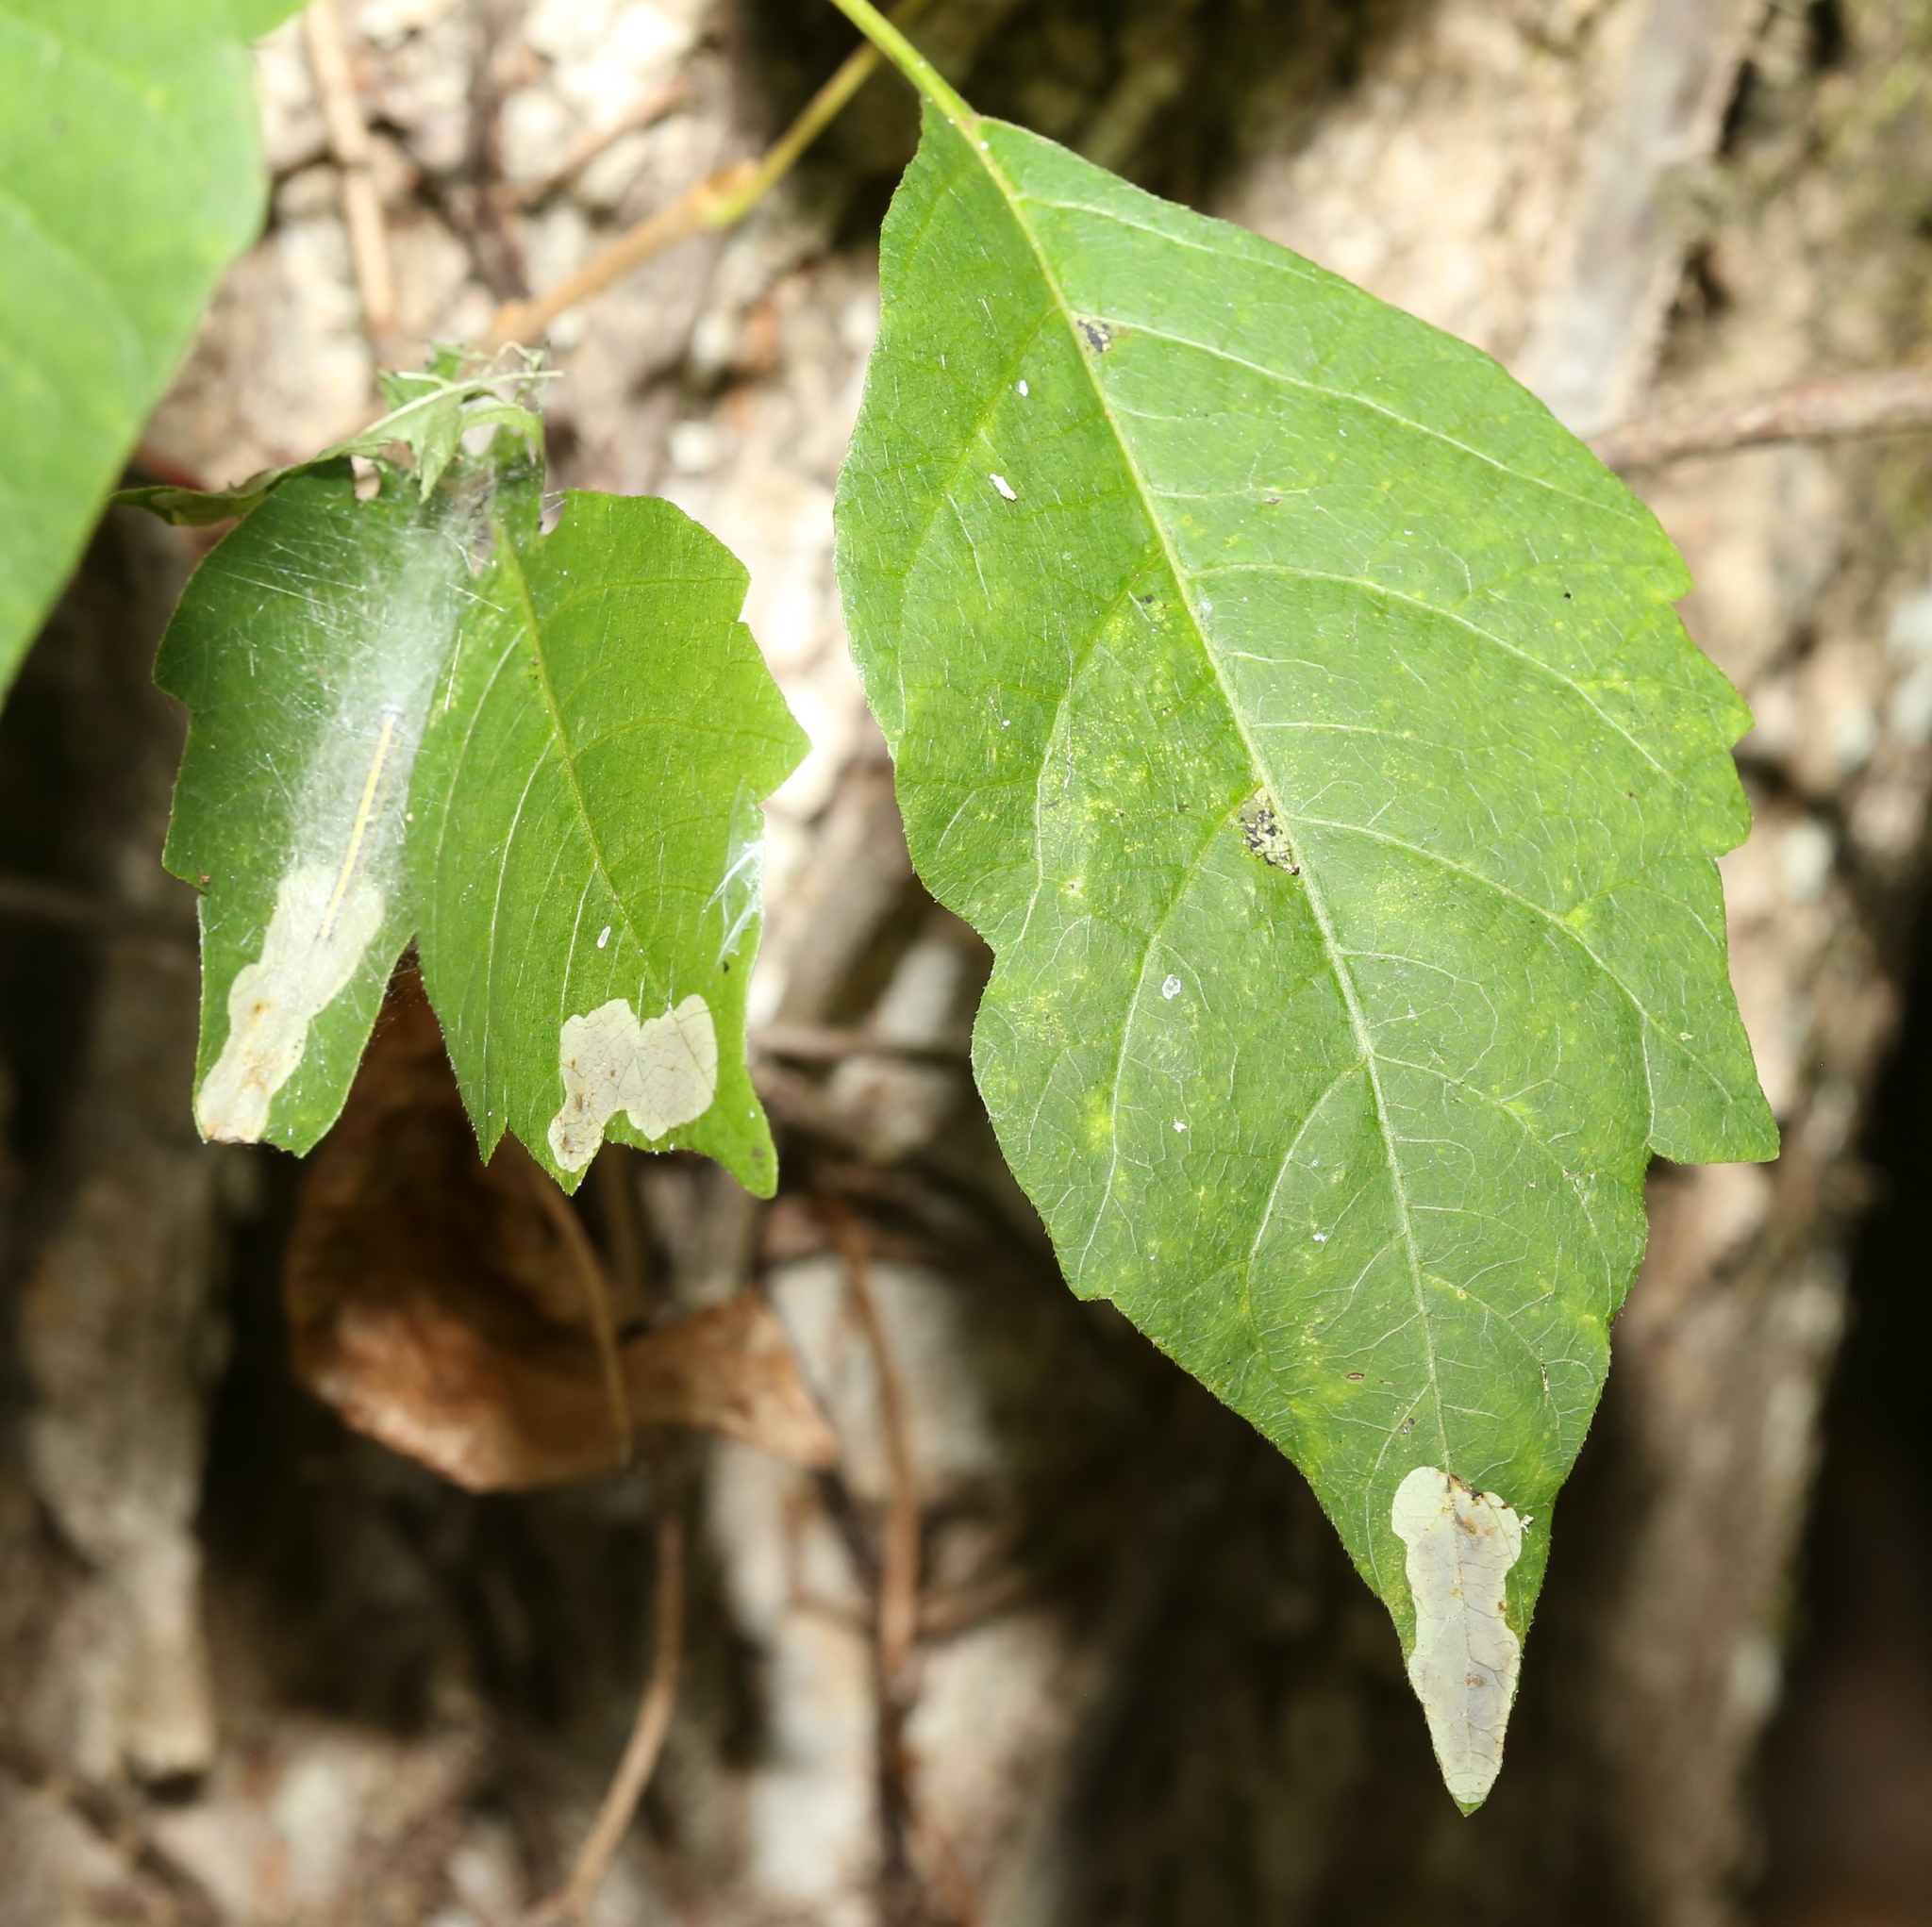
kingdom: Animalia
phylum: Arthropoda
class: Insecta
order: Lepidoptera
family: Gracillariidae
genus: Cameraria
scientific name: Cameraria guttifinitella
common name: Poison ivy leaf-miner moth
